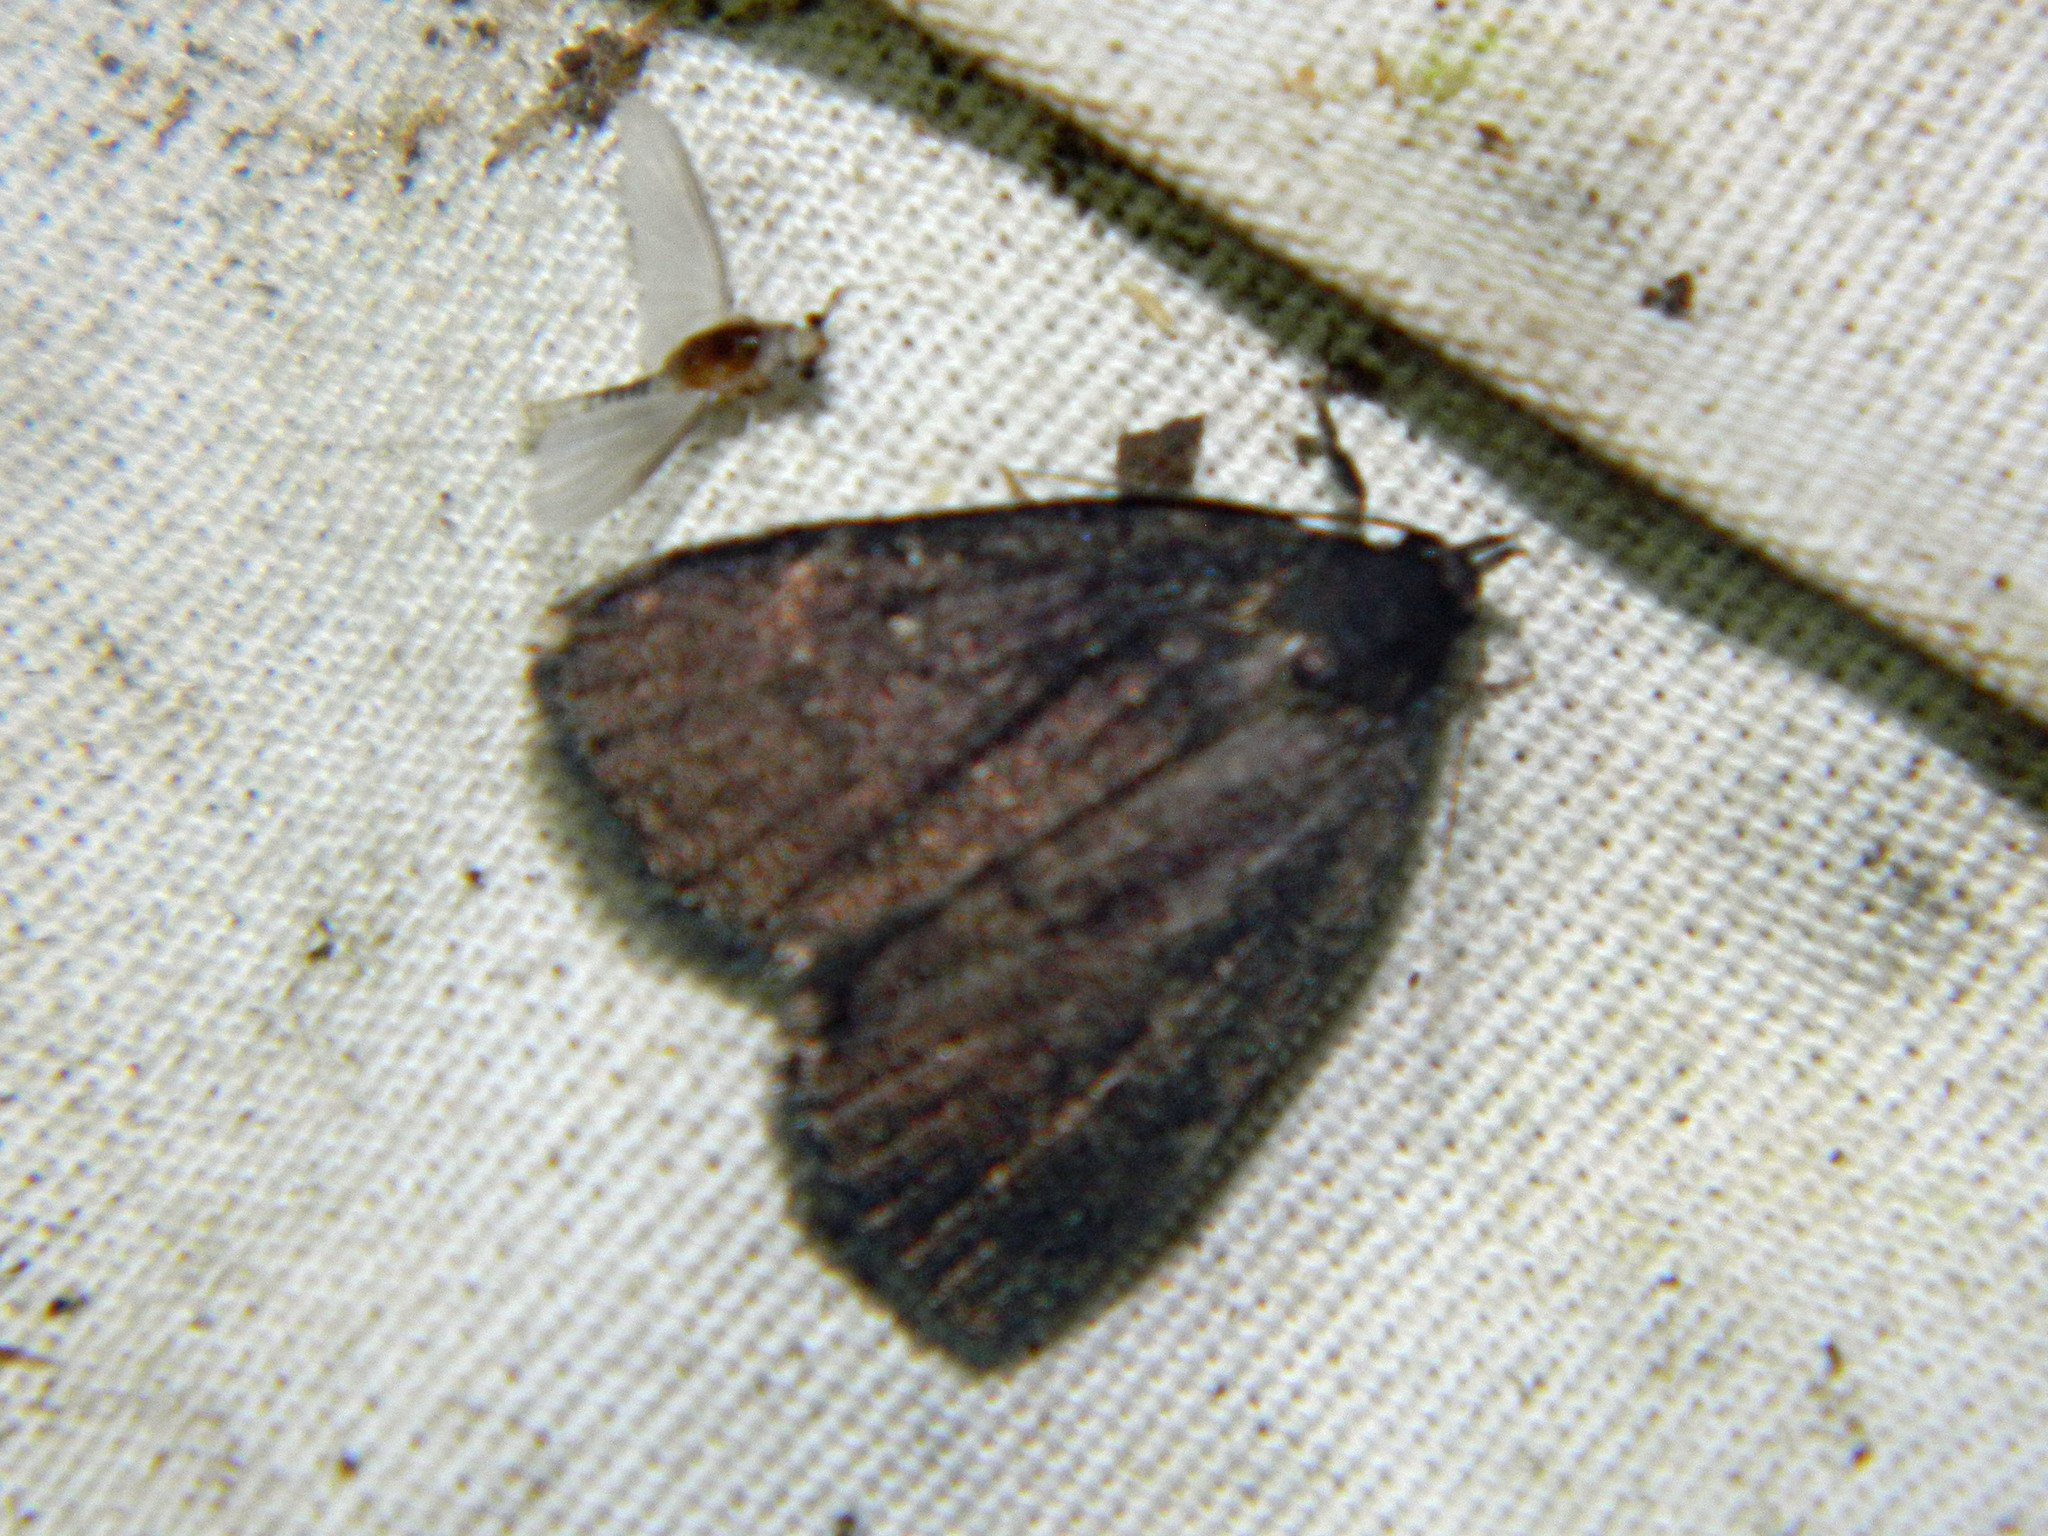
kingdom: Animalia
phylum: Arthropoda
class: Insecta
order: Lepidoptera
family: Erebidae
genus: Idia
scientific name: Idia rotundalis
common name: Rotund idia moth
